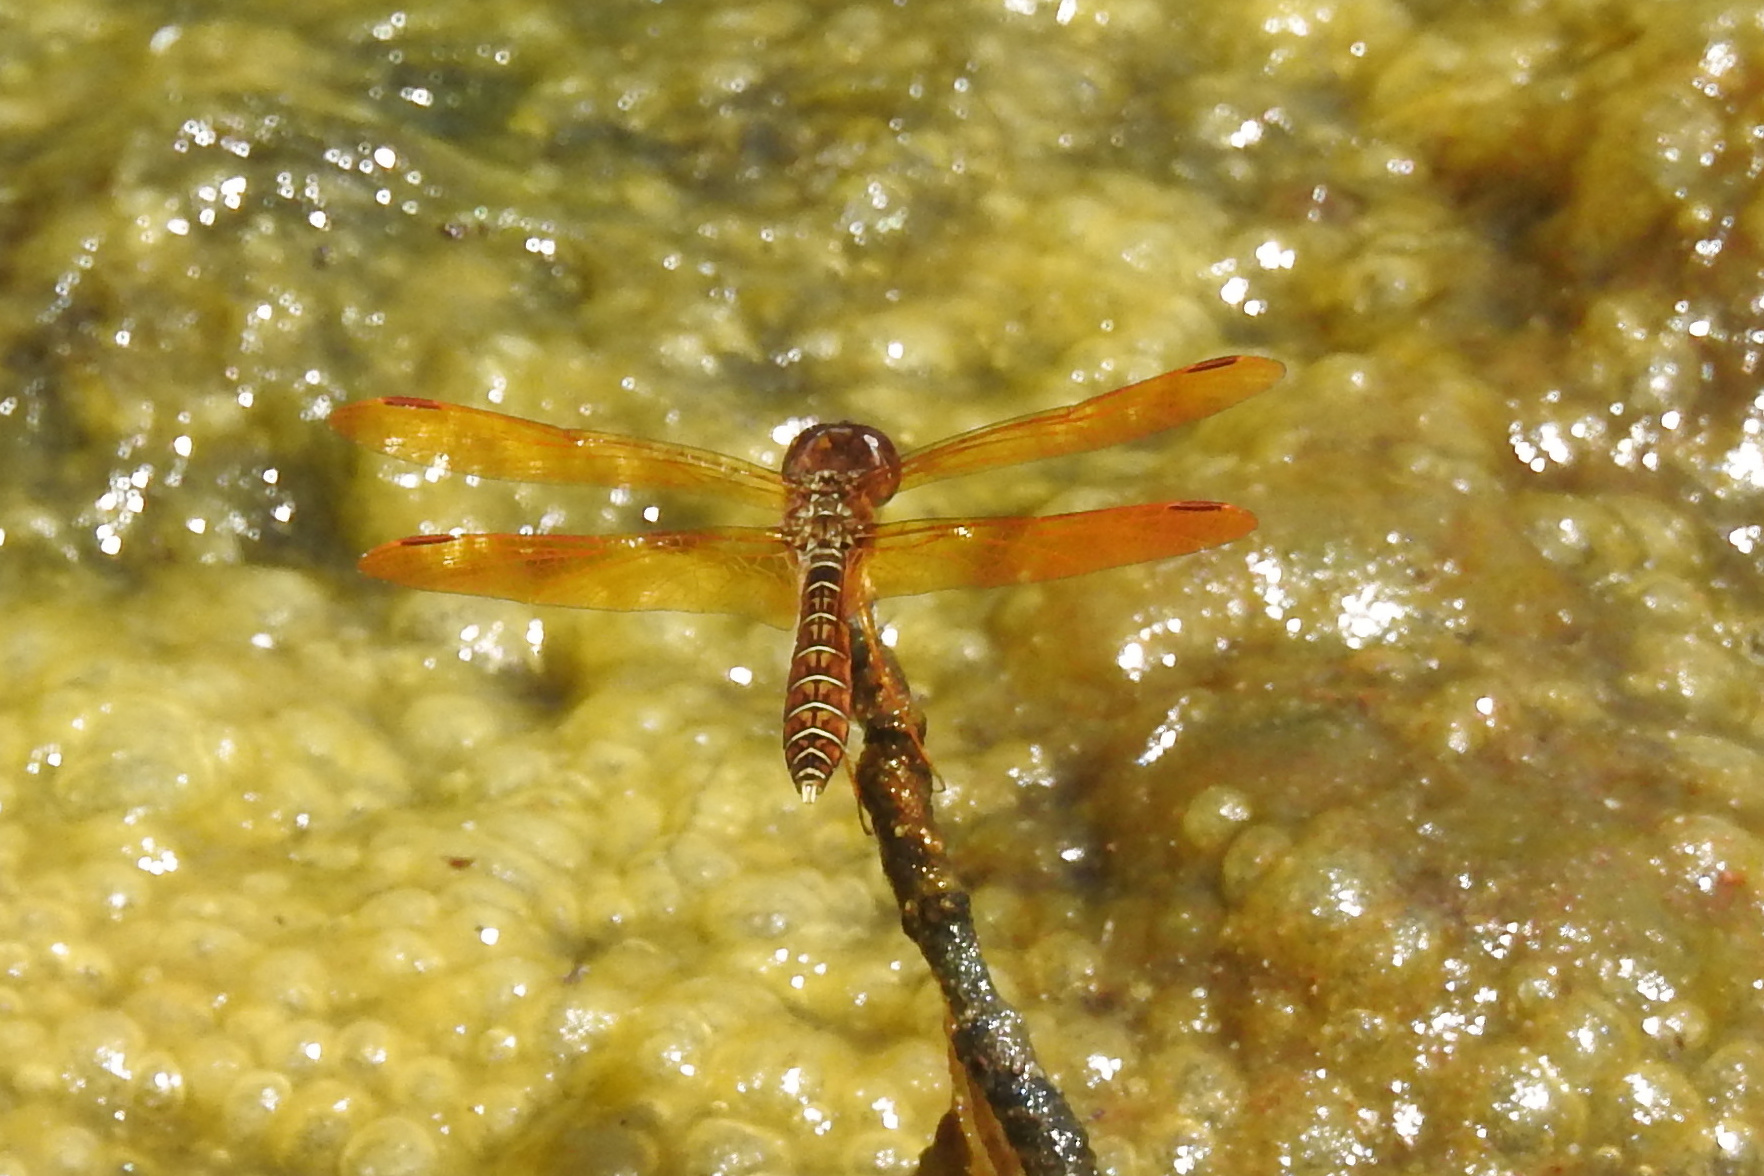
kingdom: Animalia
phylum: Arthropoda
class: Insecta
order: Odonata
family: Libellulidae
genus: Perithemis
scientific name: Perithemis tenera
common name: Eastern amberwing
